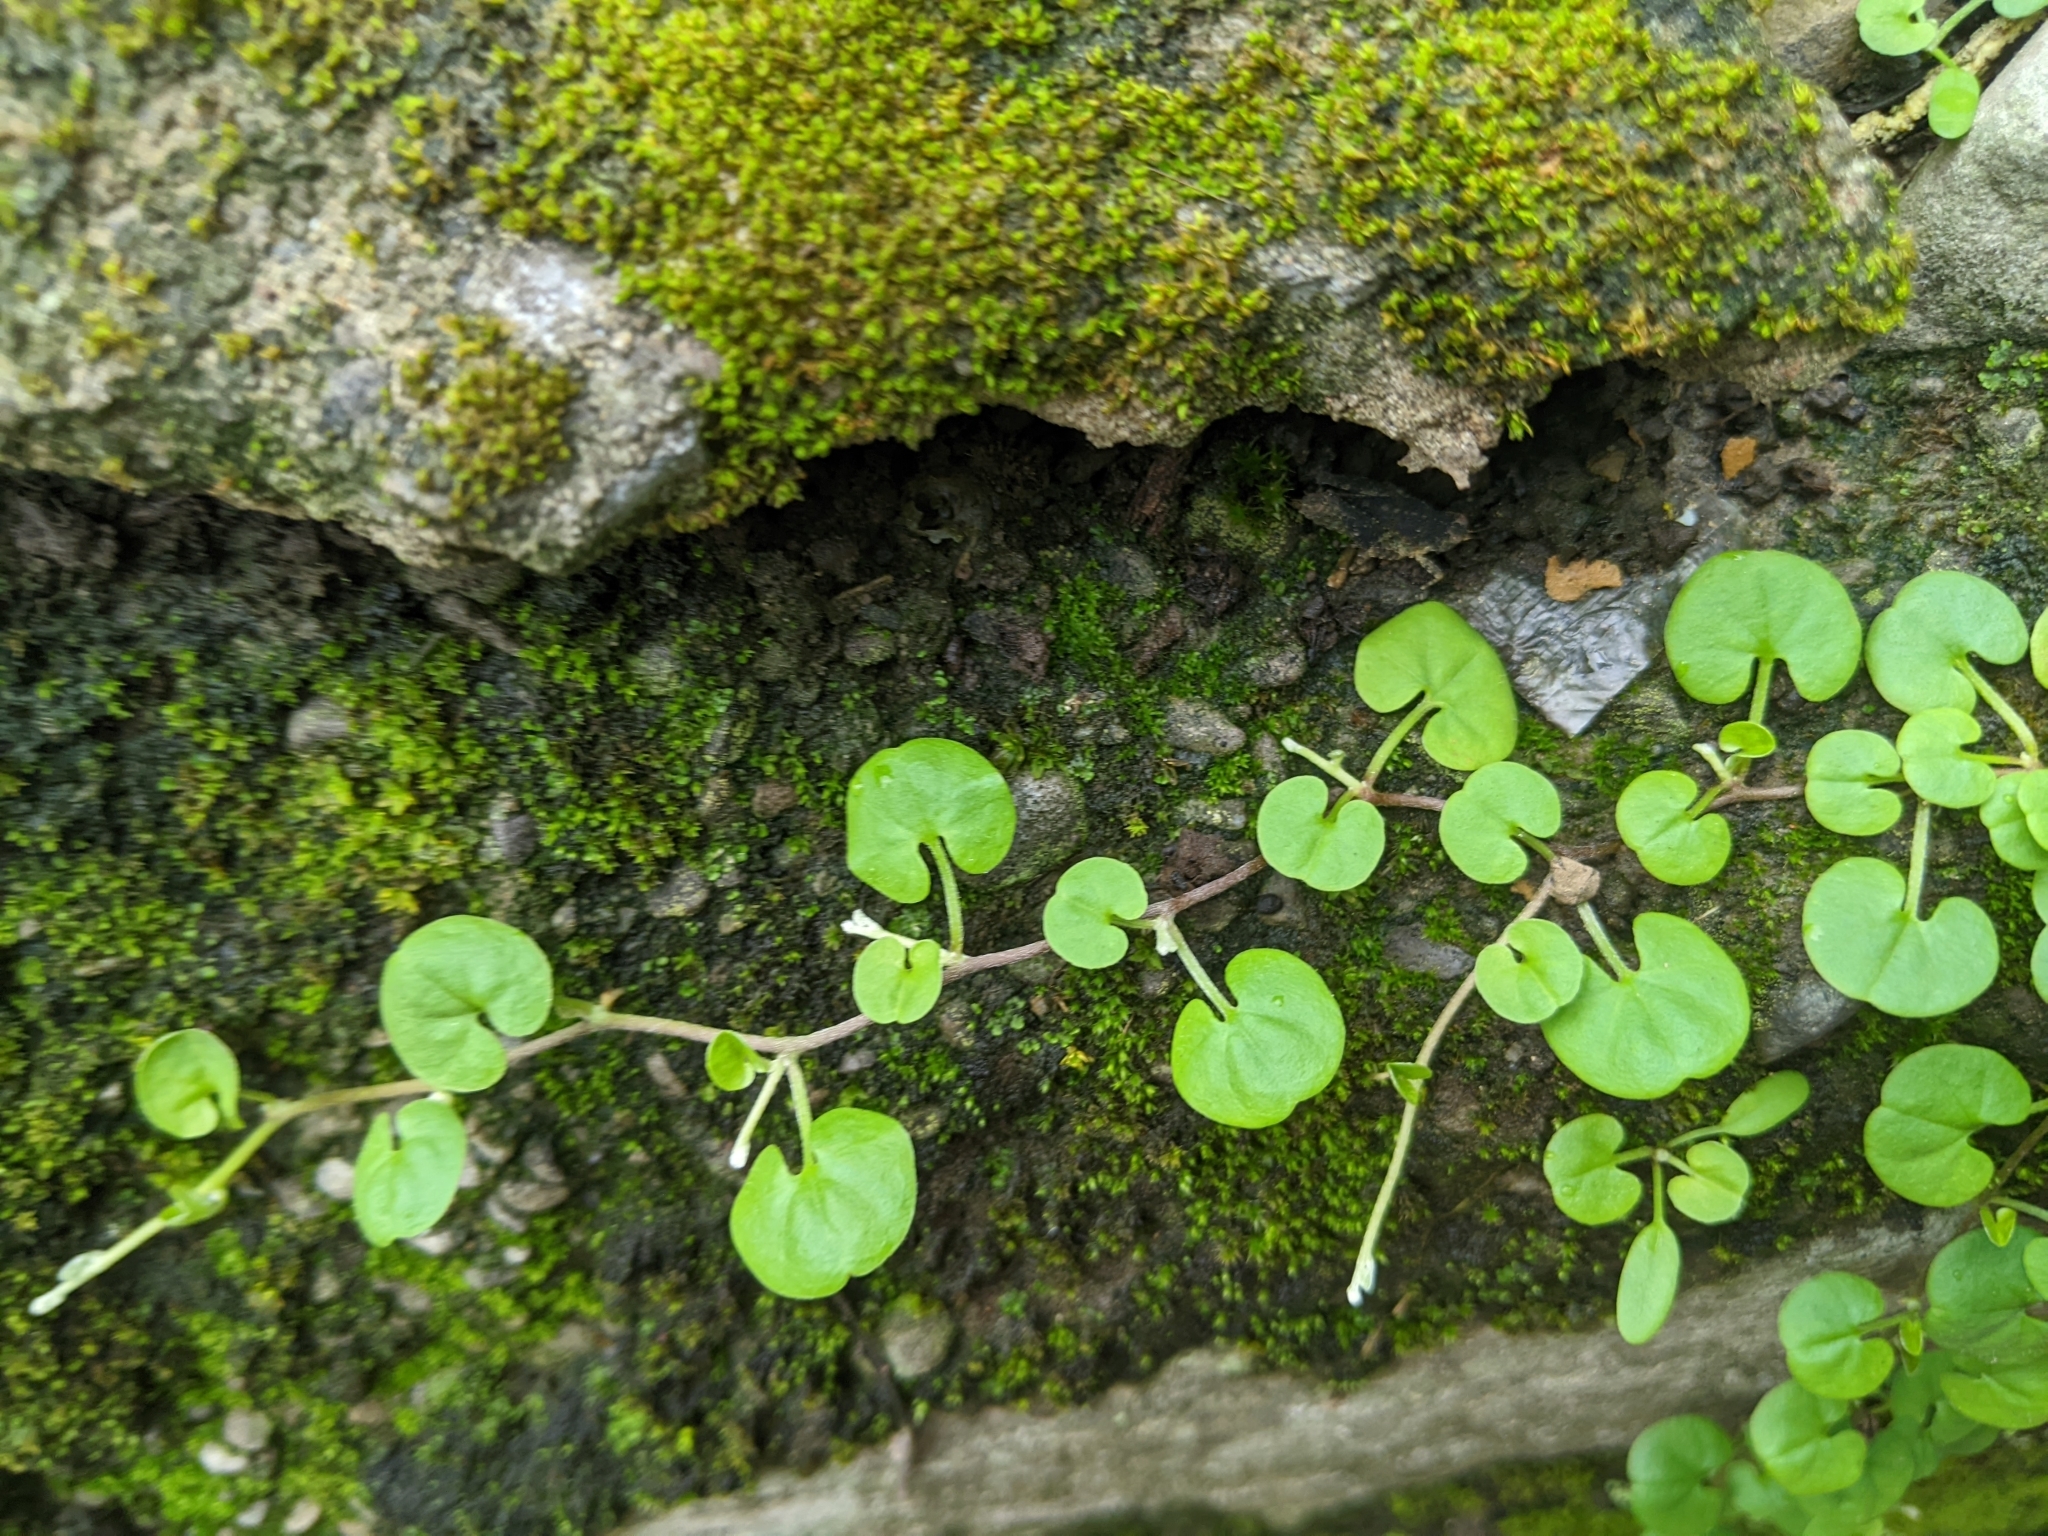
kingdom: Plantae
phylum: Tracheophyta
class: Magnoliopsida
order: Solanales
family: Convolvulaceae
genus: Dichondra
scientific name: Dichondra micrantha
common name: Kidneyweed
